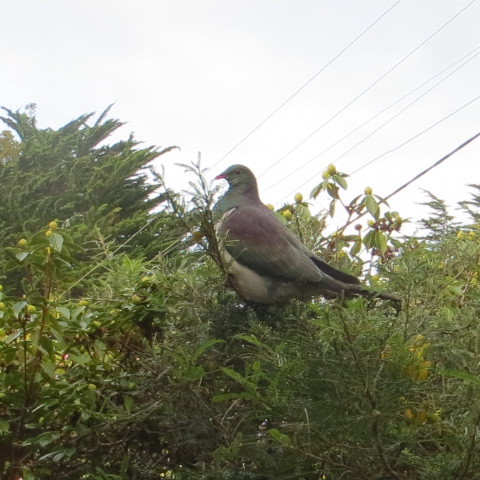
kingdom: Animalia
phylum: Chordata
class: Aves
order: Columbiformes
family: Columbidae
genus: Hemiphaga
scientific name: Hemiphaga novaeseelandiae
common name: New zealand pigeon
